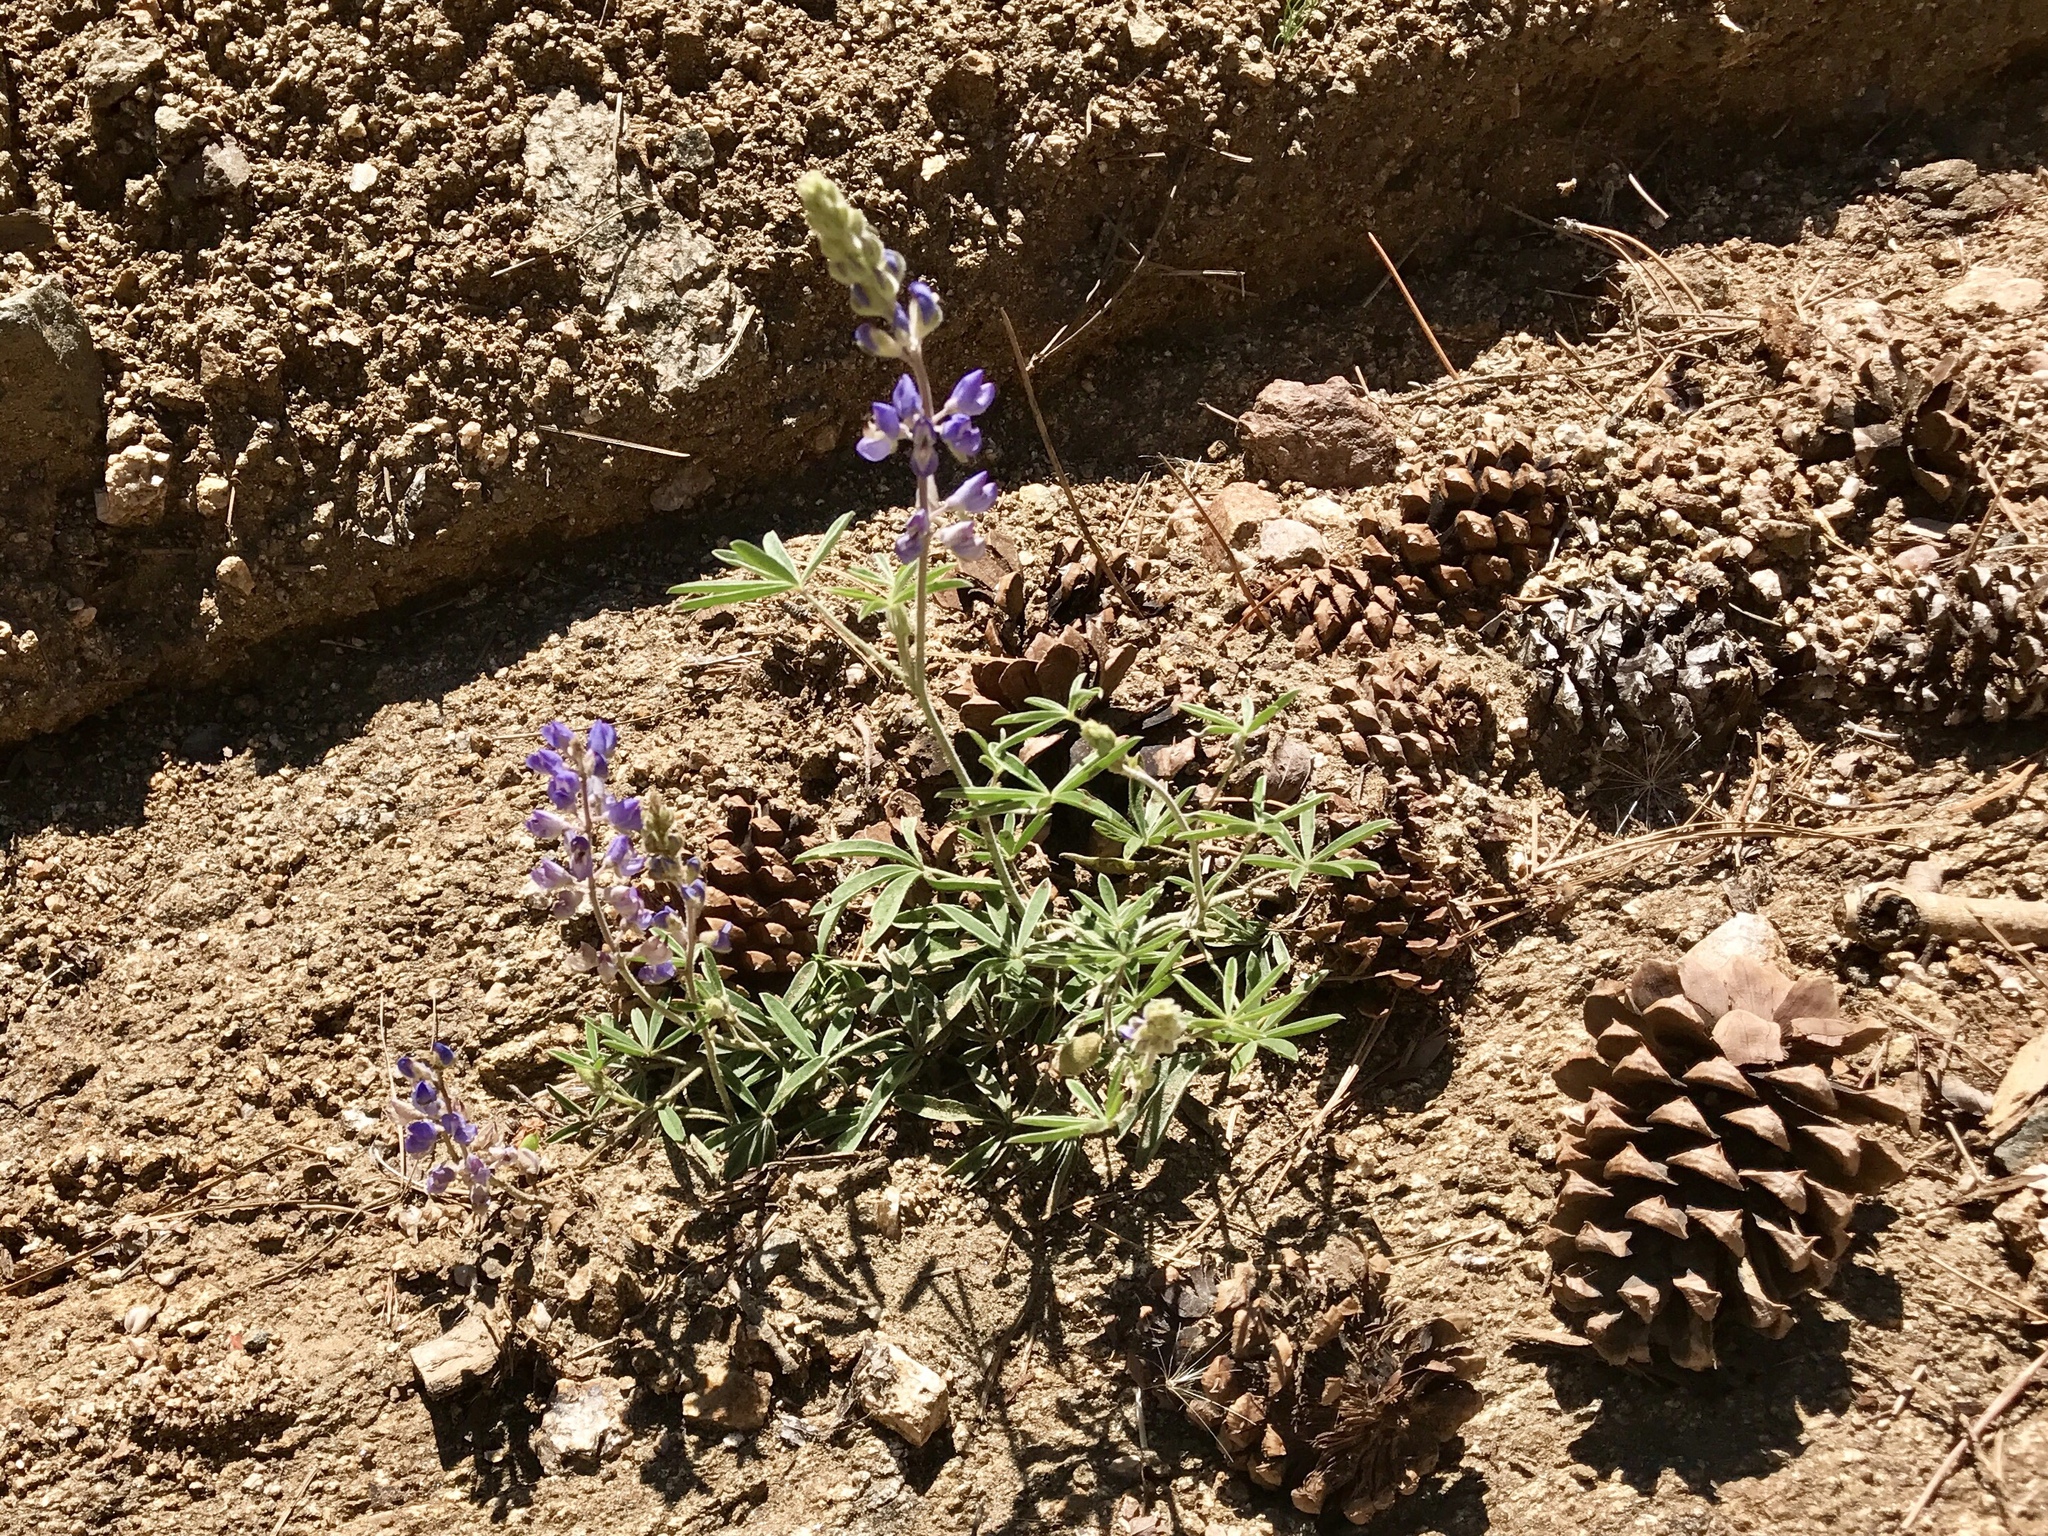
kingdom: Plantae
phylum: Tracheophyta
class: Magnoliopsida
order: Fabales
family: Fabaceae
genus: Lupinus
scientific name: Lupinus argenteus
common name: Silvery lupine
